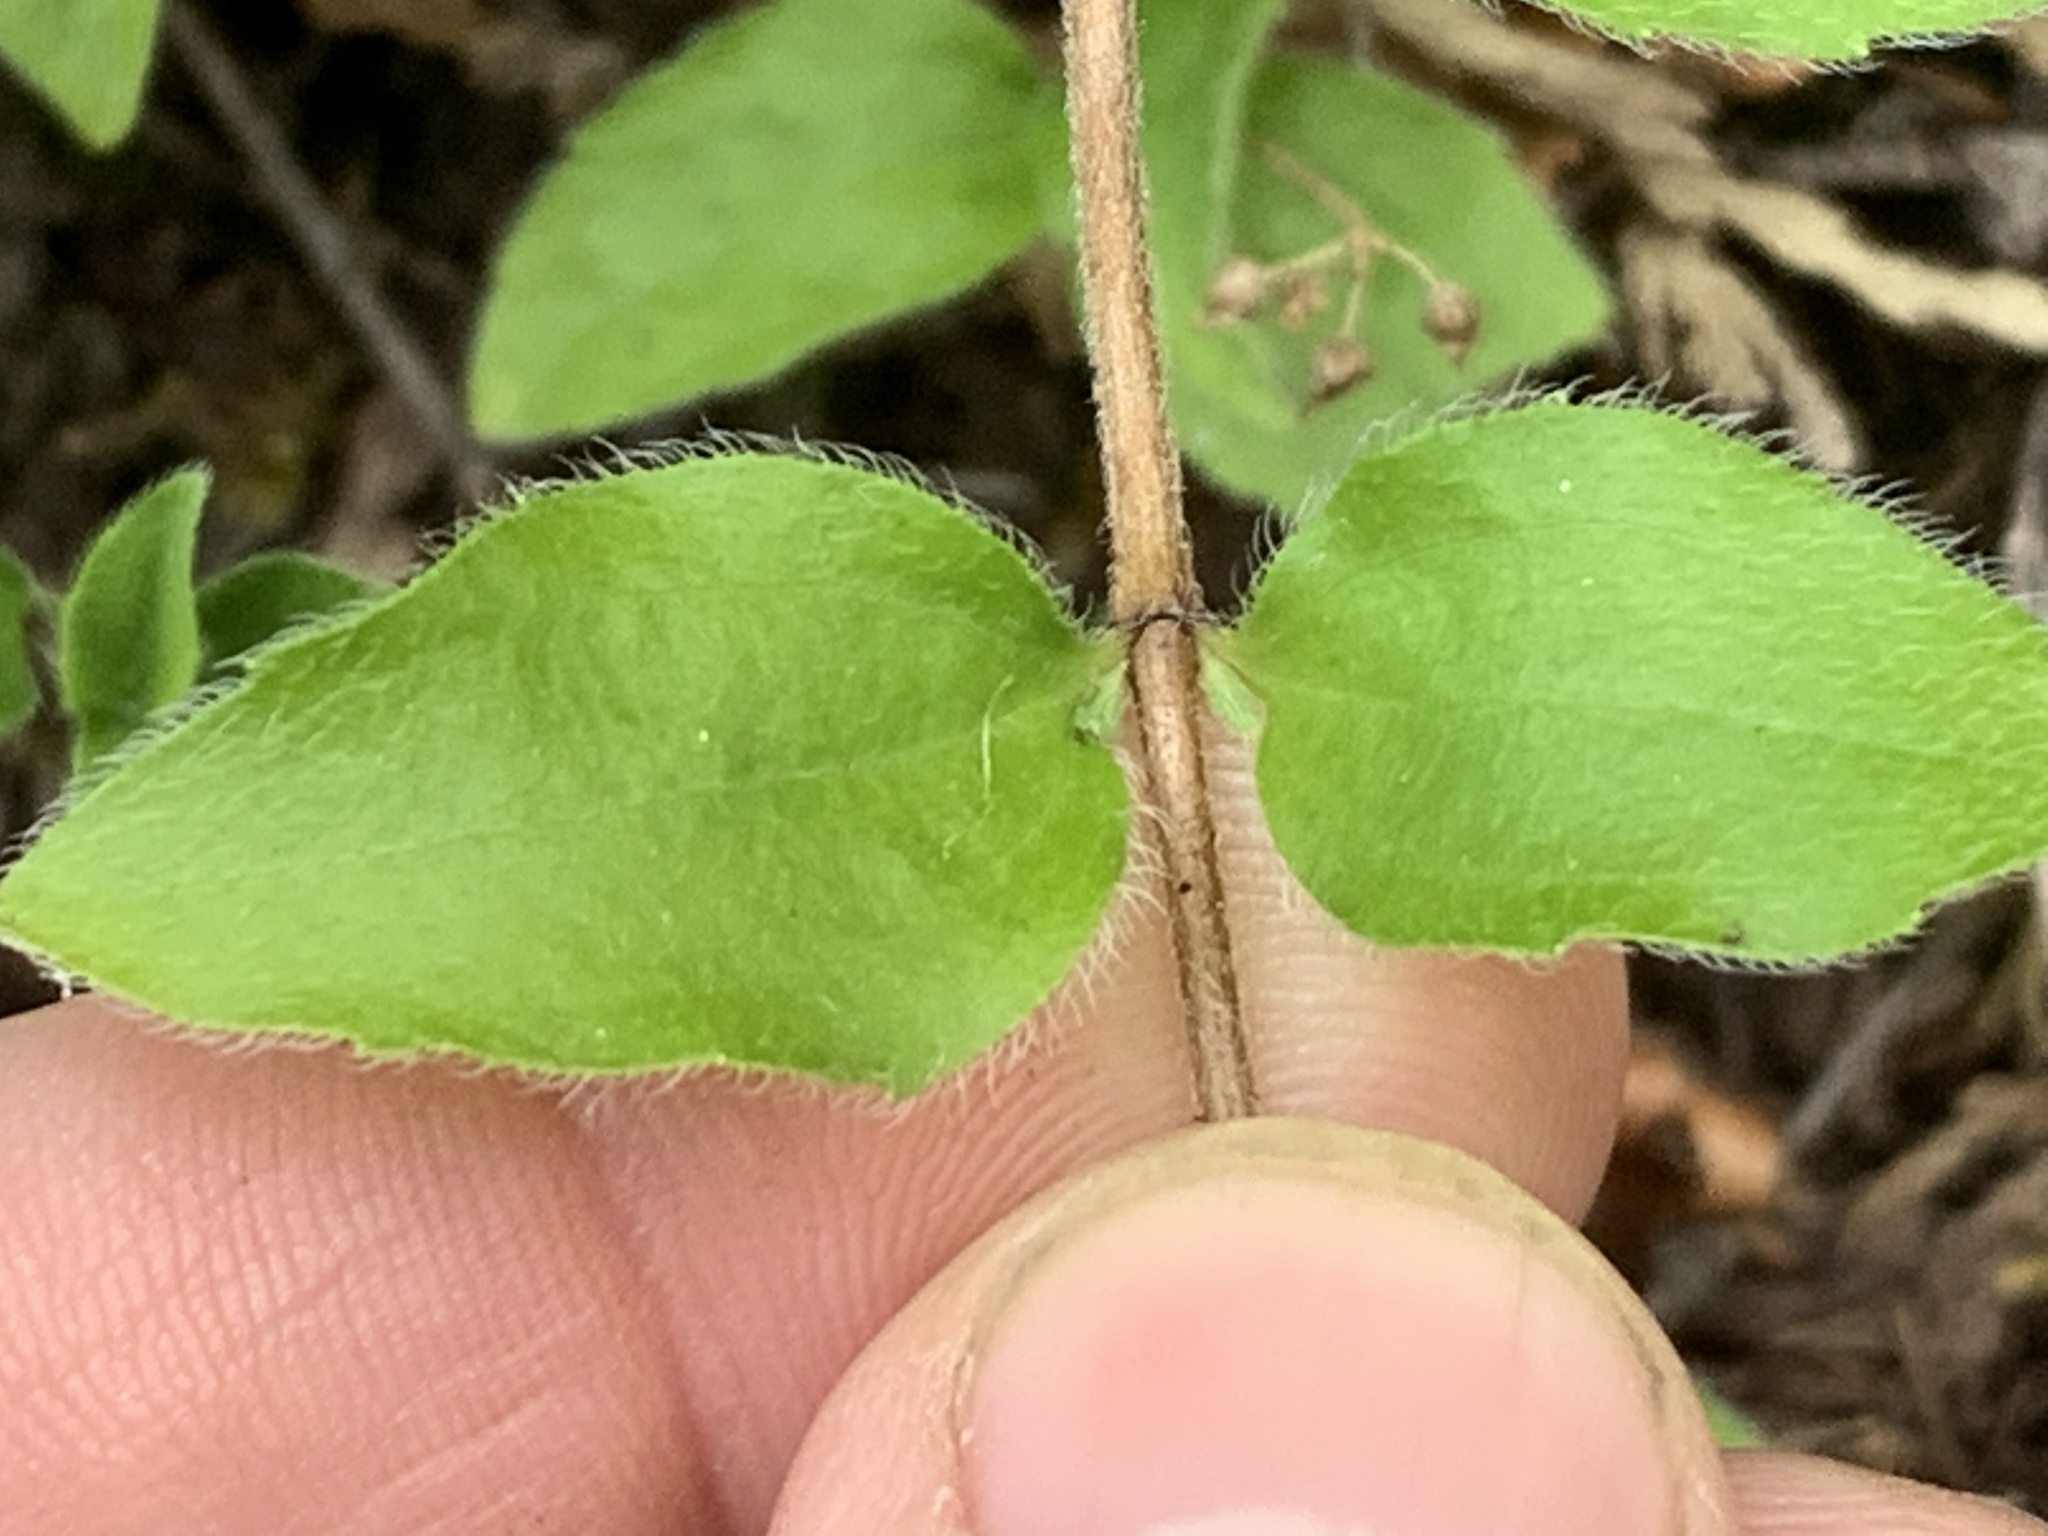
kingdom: Plantae
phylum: Tracheophyta
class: Magnoliopsida
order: Cornales
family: Hydrangeaceae
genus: Whipplea
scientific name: Whipplea modesta
